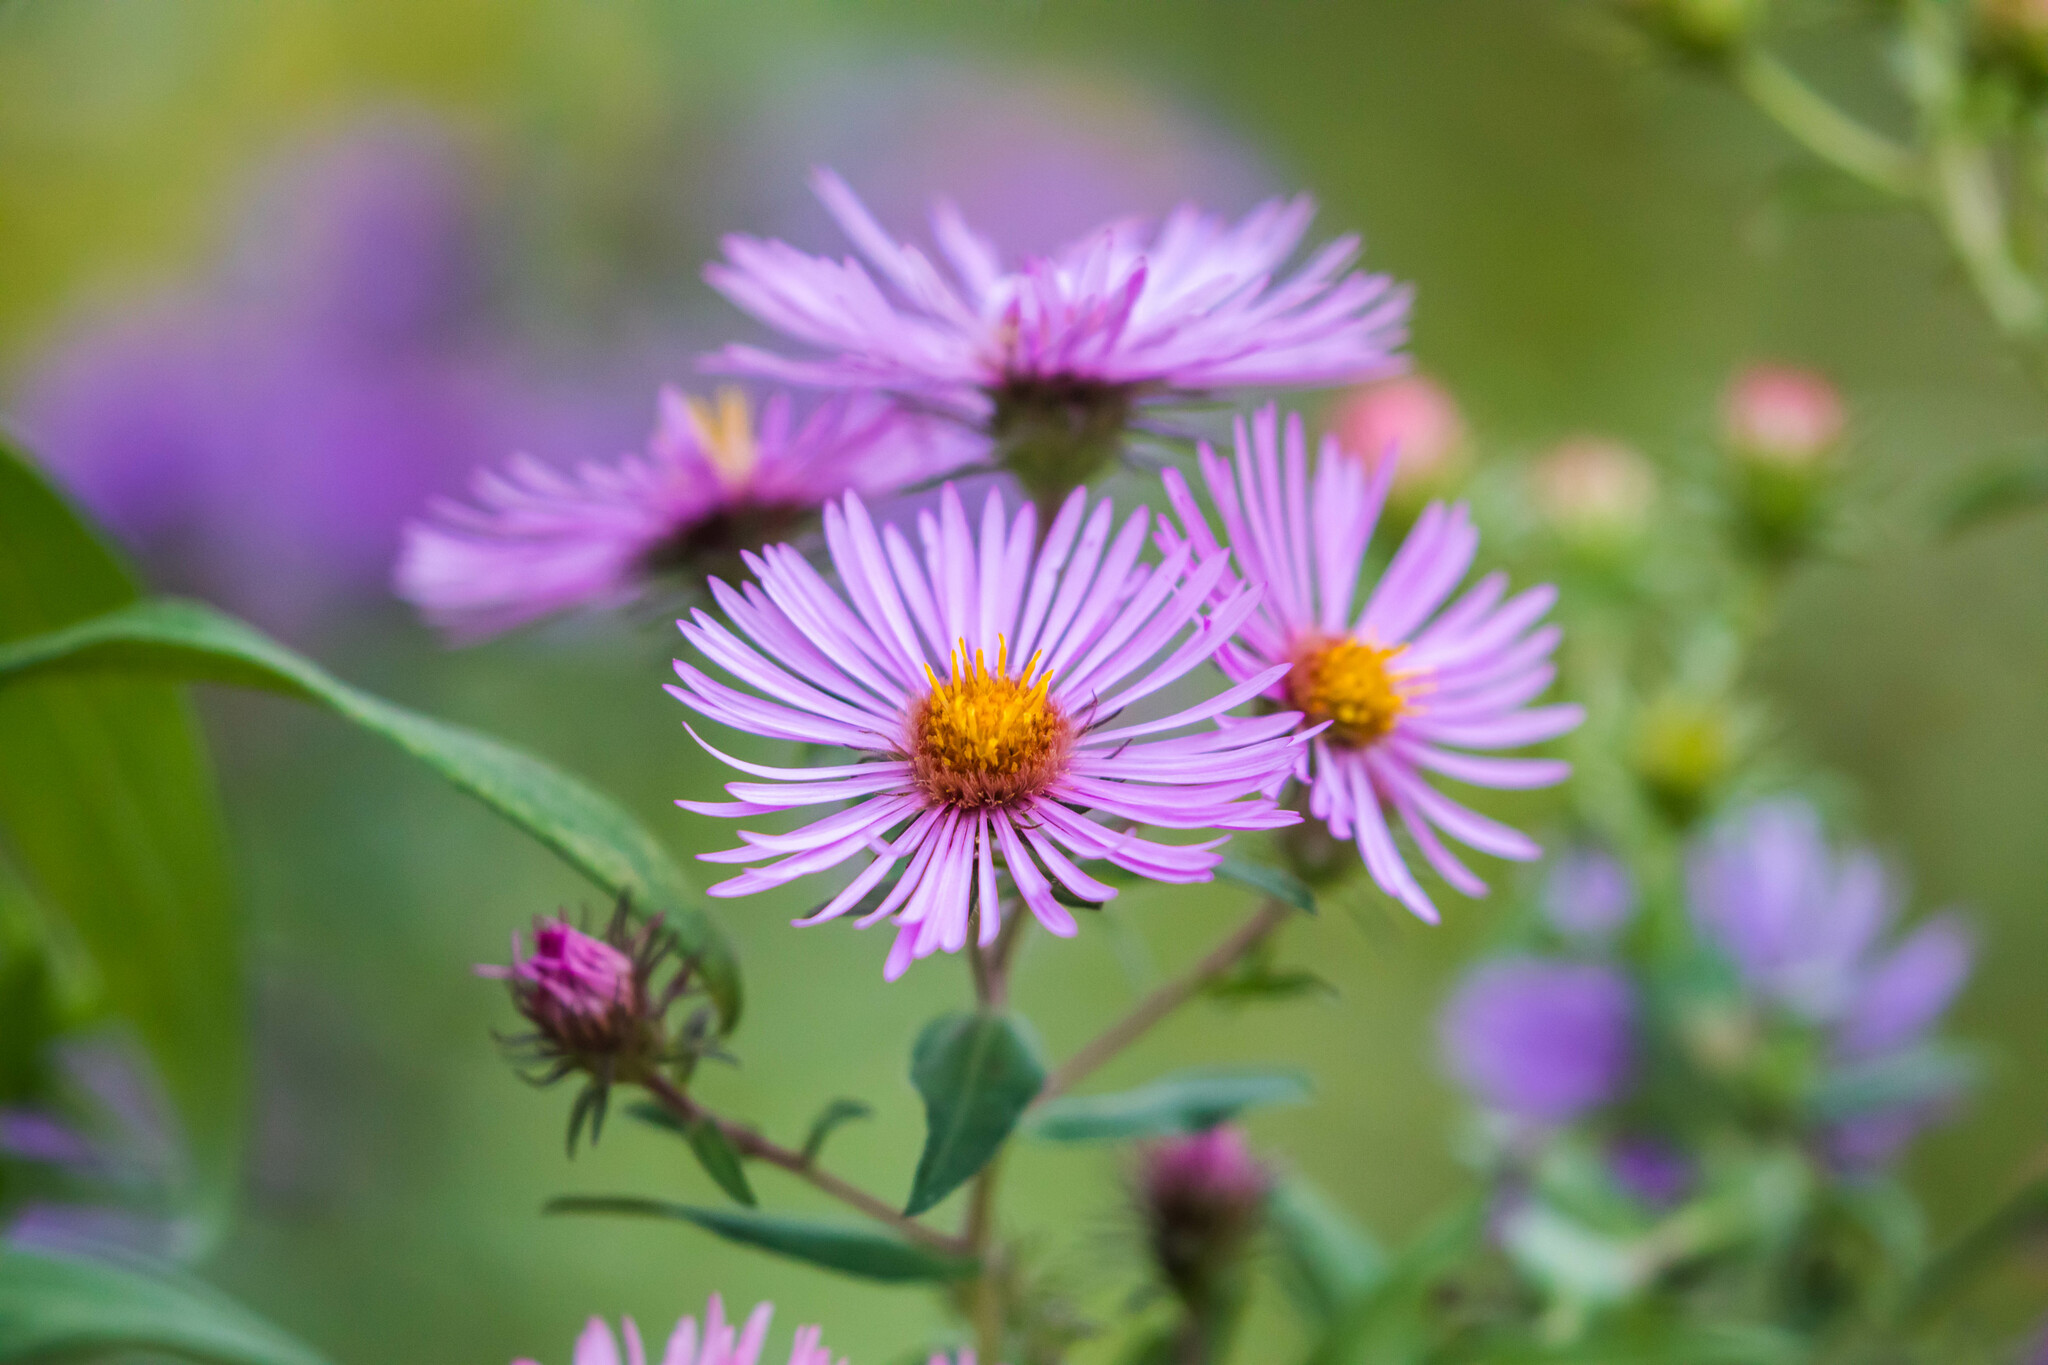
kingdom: Plantae
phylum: Tracheophyta
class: Magnoliopsida
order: Asterales
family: Asteraceae
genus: Symphyotrichum
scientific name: Symphyotrichum novae-angliae
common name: Michaelmas daisy
